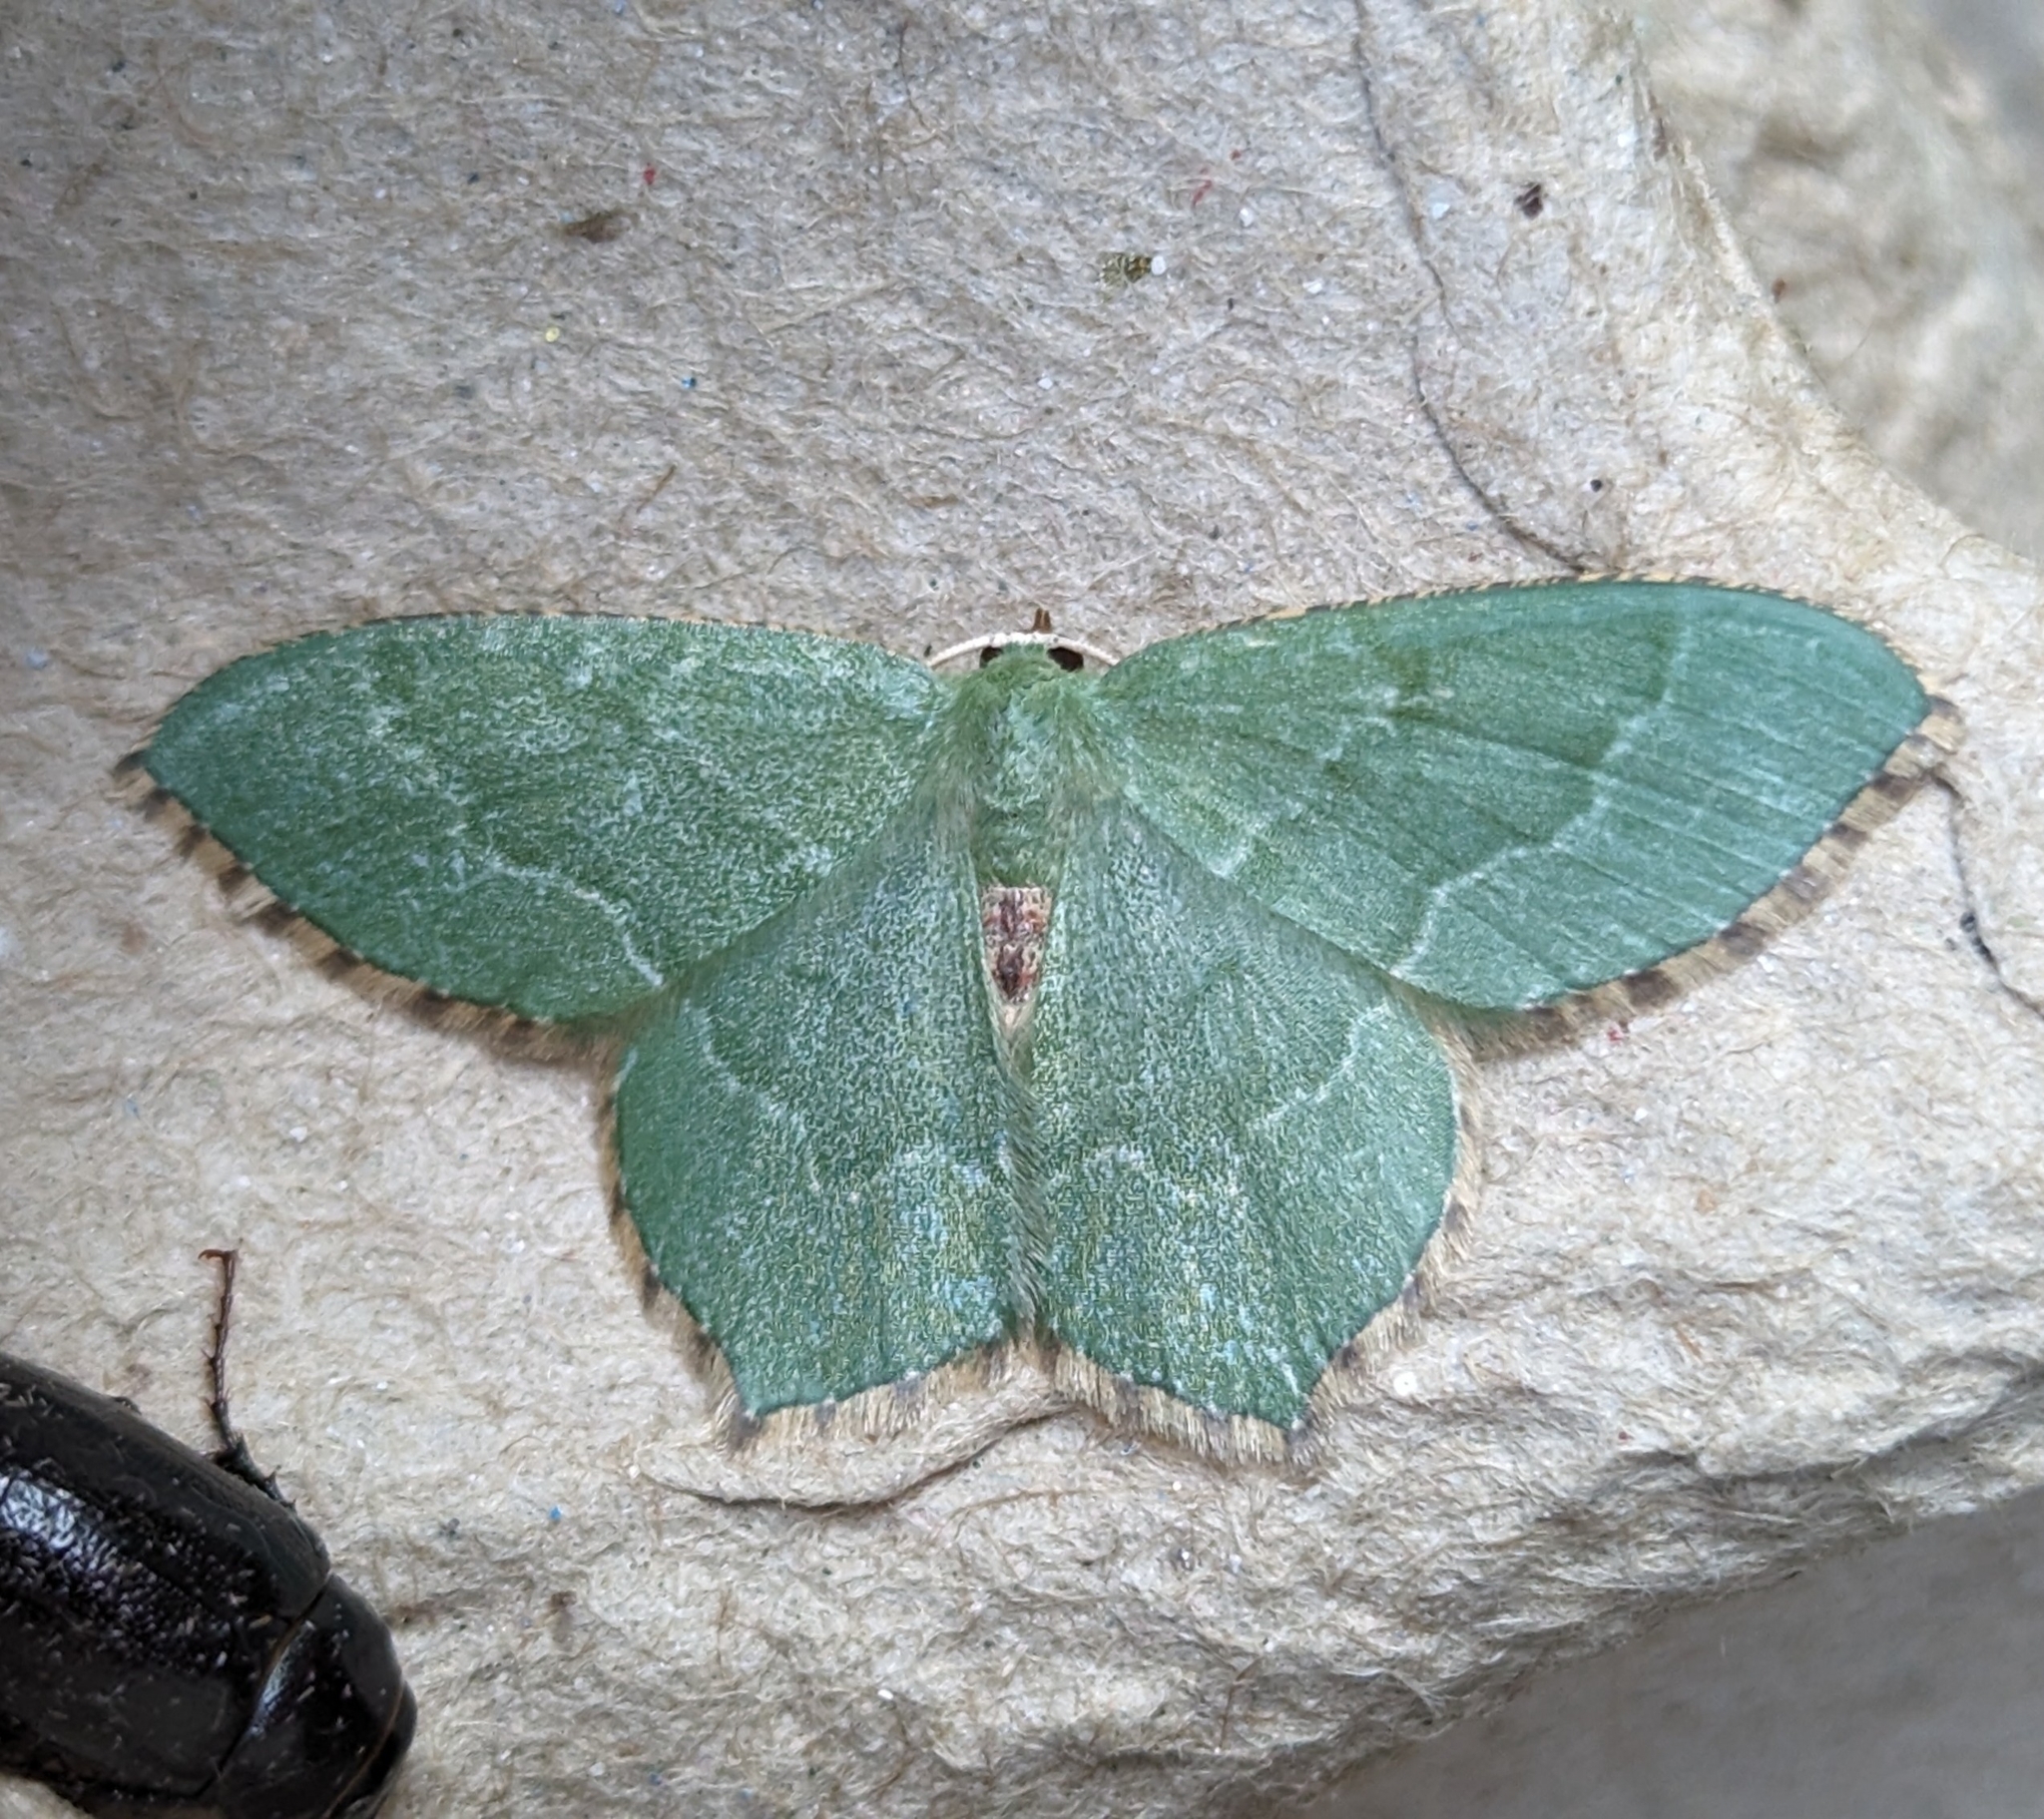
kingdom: Animalia
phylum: Arthropoda
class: Insecta
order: Lepidoptera
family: Geometridae
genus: Hemithea
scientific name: Hemithea aestivaria
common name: Common emerald
